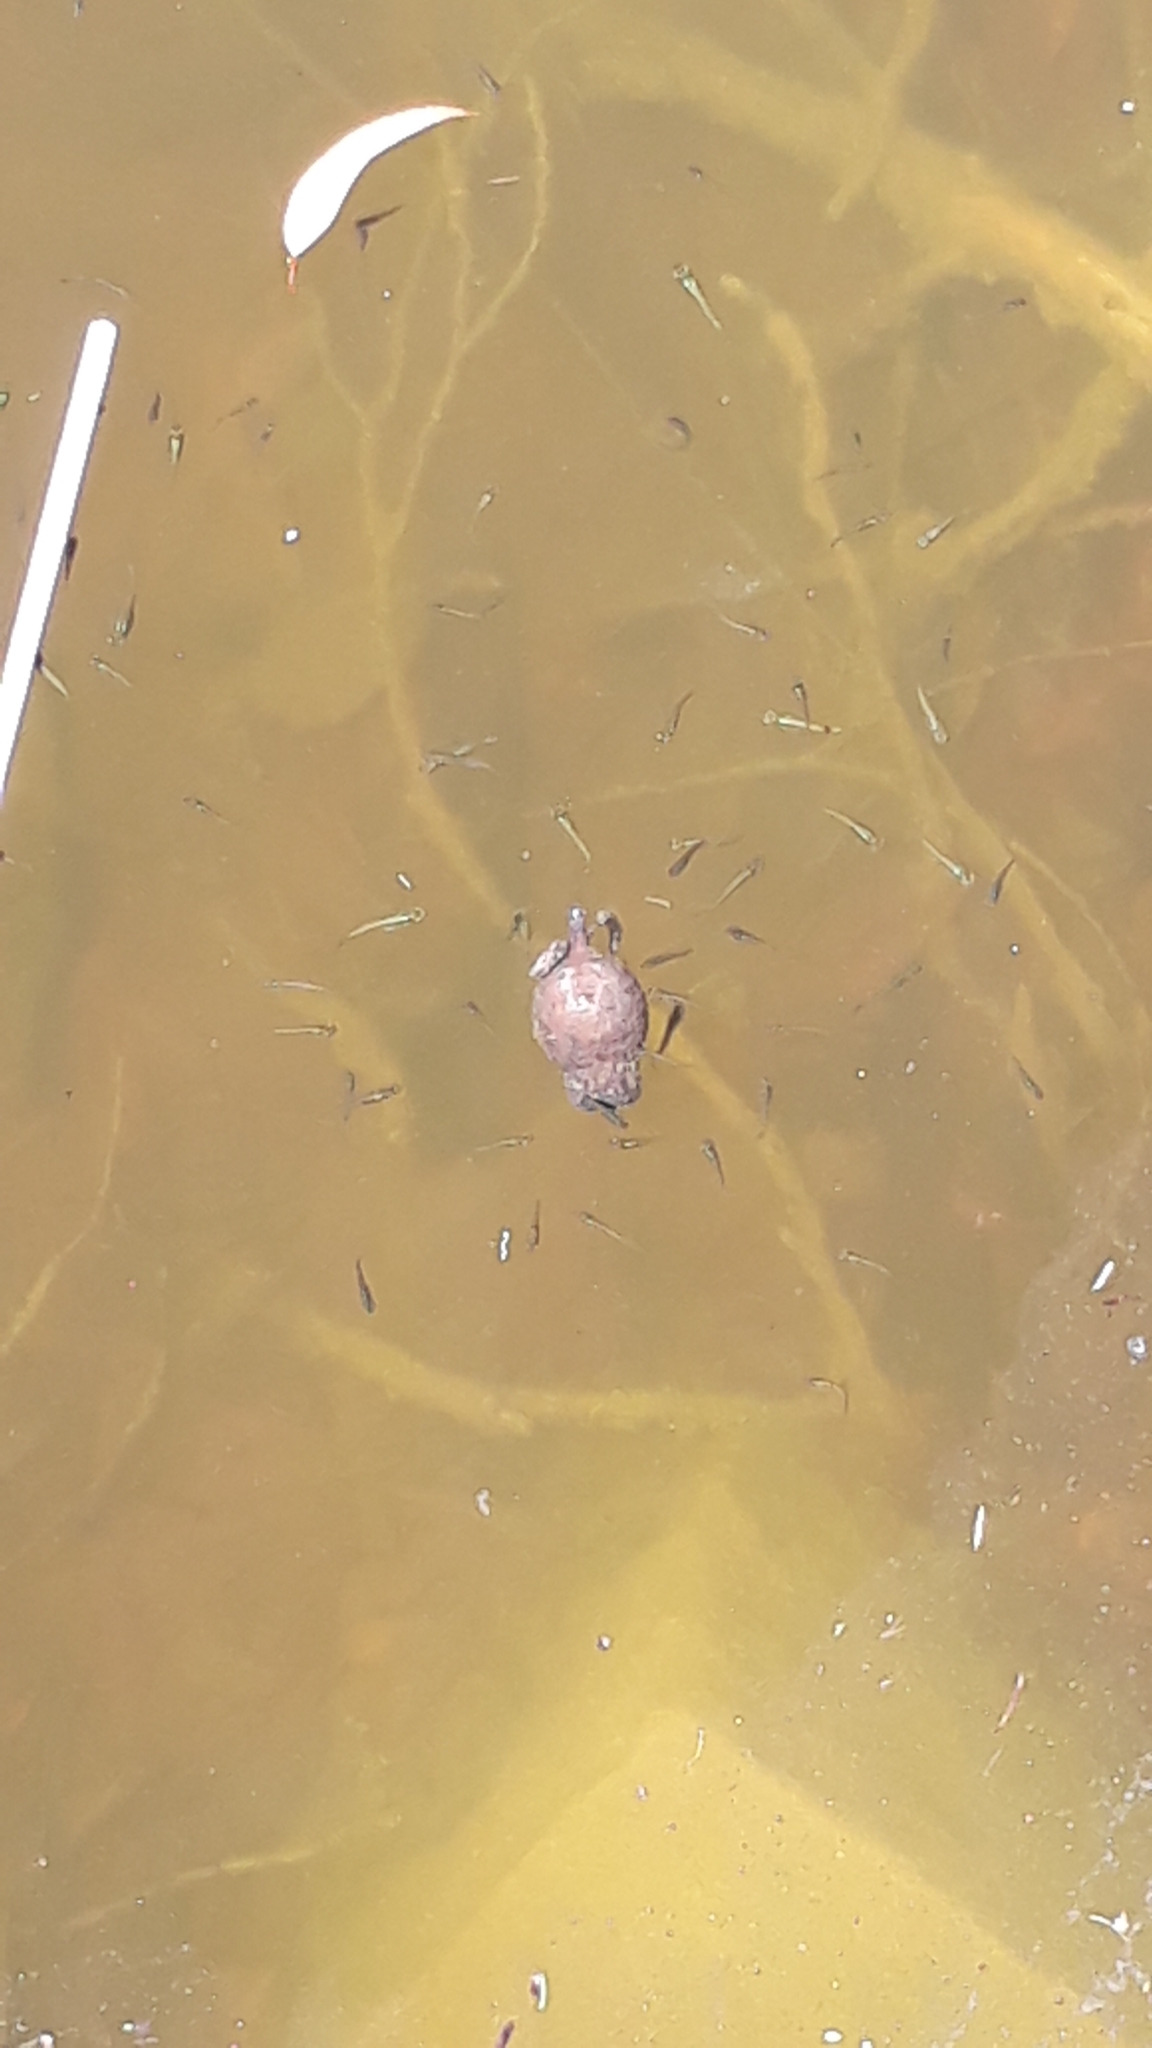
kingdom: Animalia
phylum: Chordata
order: Cyprinodontiformes
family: Poeciliidae
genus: Gambusia
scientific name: Gambusia holbrooki
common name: Eastern mosquitofish
